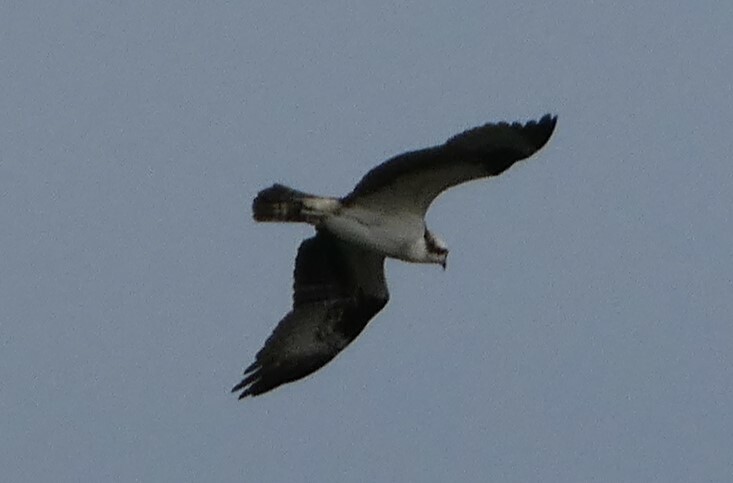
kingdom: Animalia
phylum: Chordata
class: Aves
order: Accipitriformes
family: Pandionidae
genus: Pandion
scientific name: Pandion haliaetus
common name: Osprey
